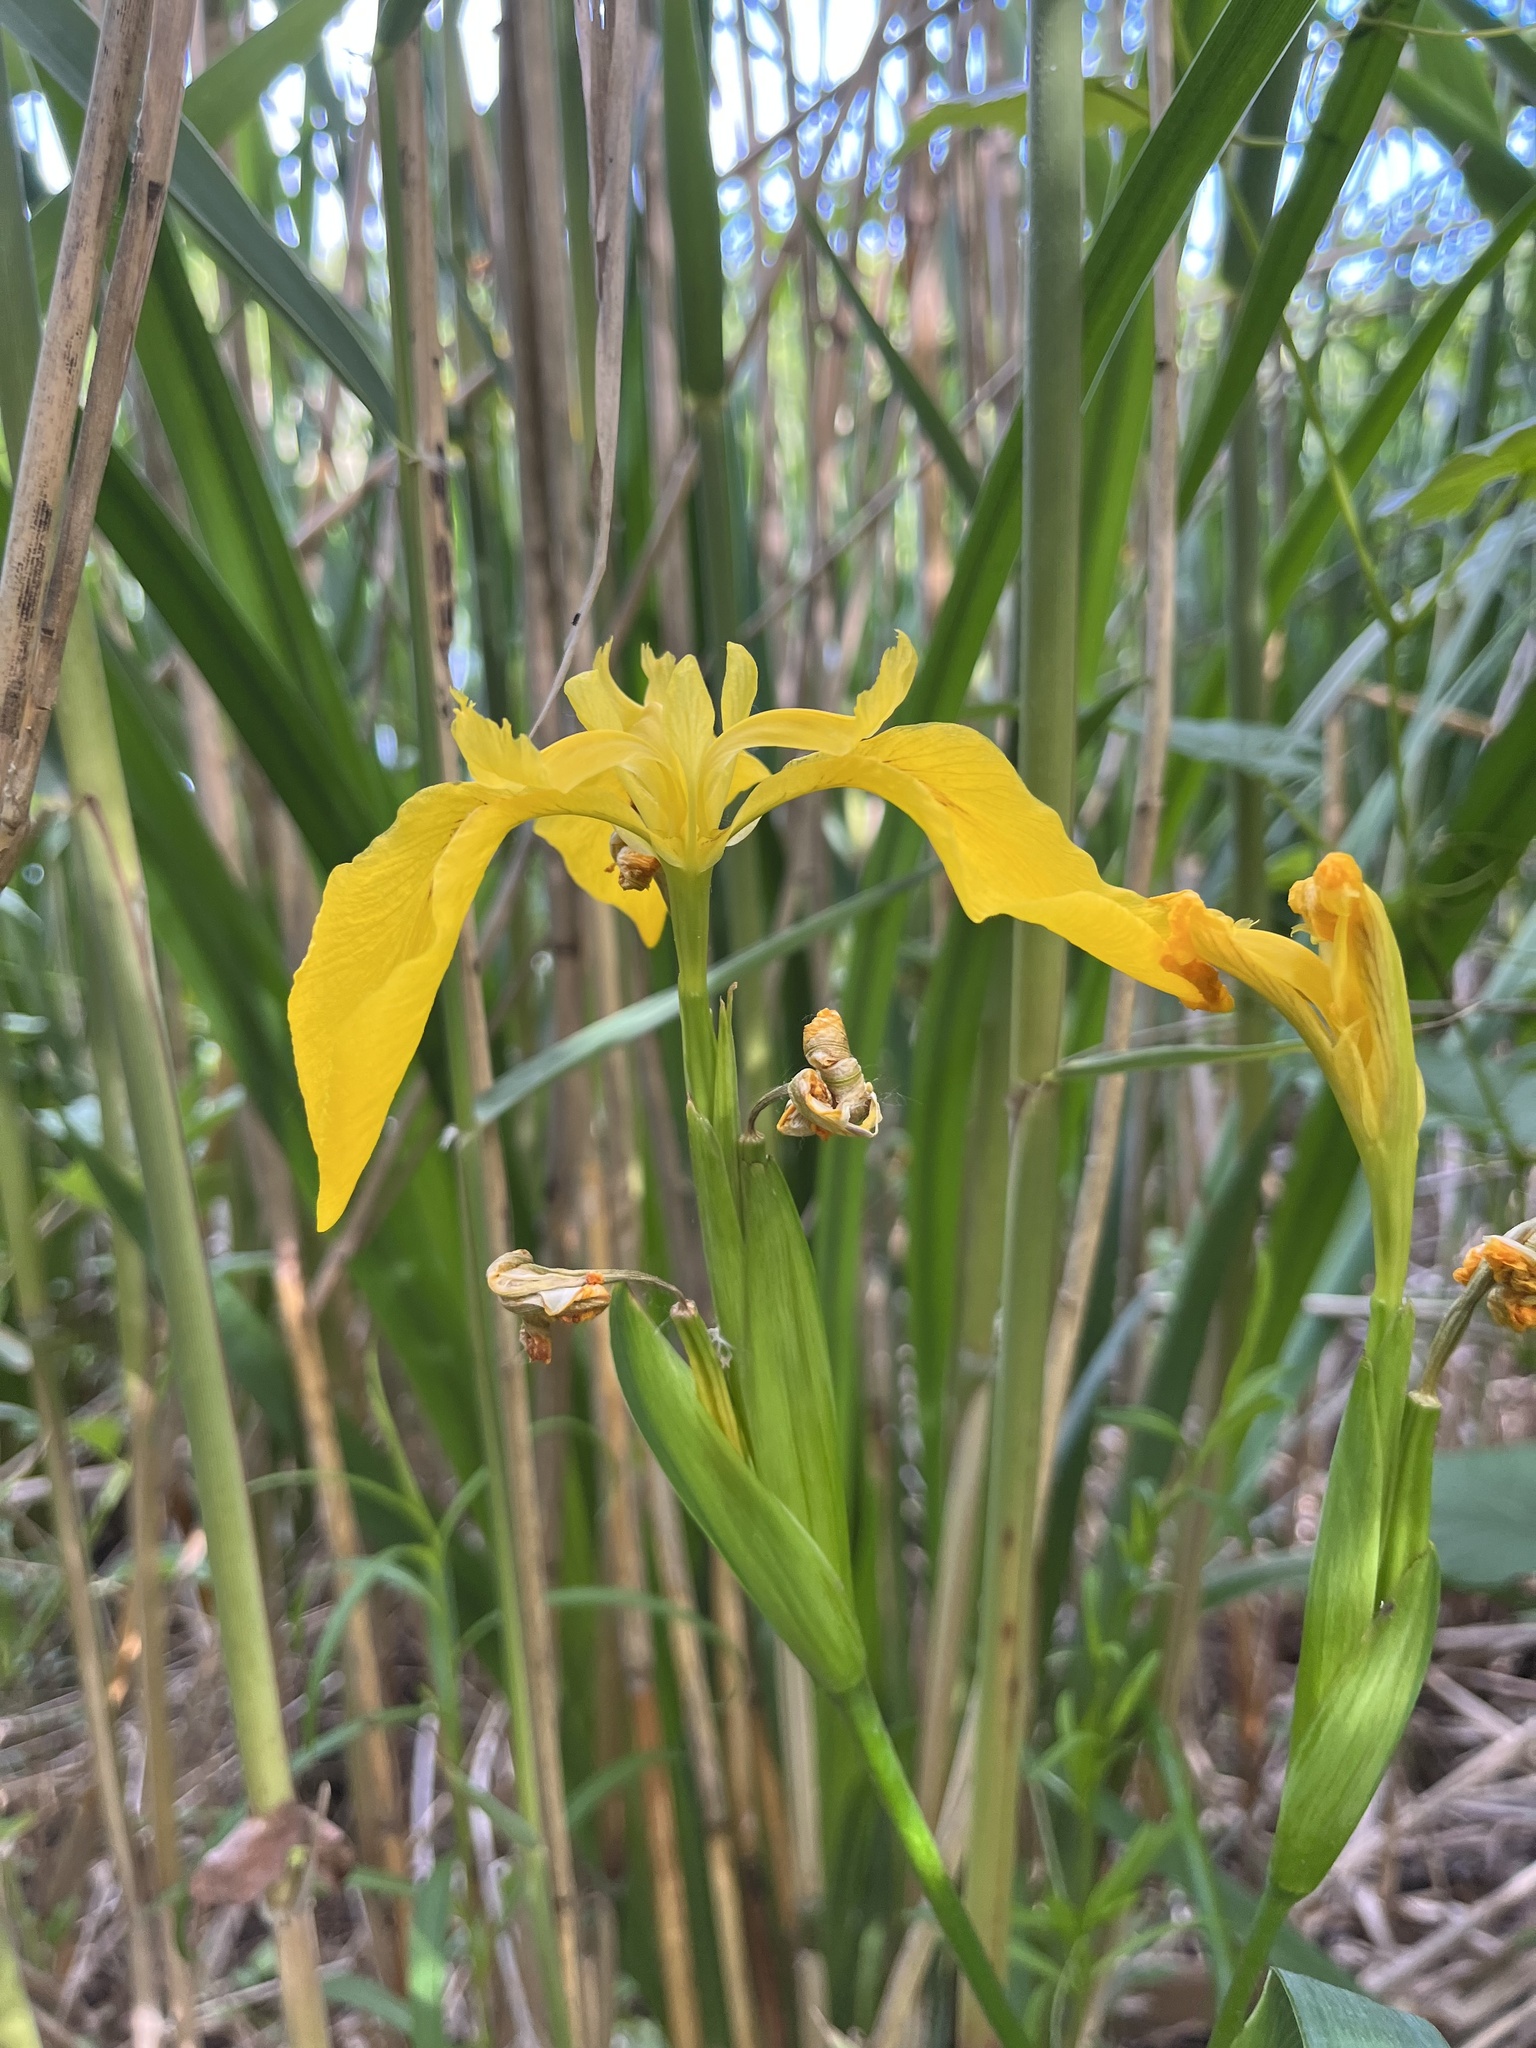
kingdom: Plantae
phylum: Tracheophyta
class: Liliopsida
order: Asparagales
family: Iridaceae
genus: Iris
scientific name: Iris pseudacorus
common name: Yellow flag
